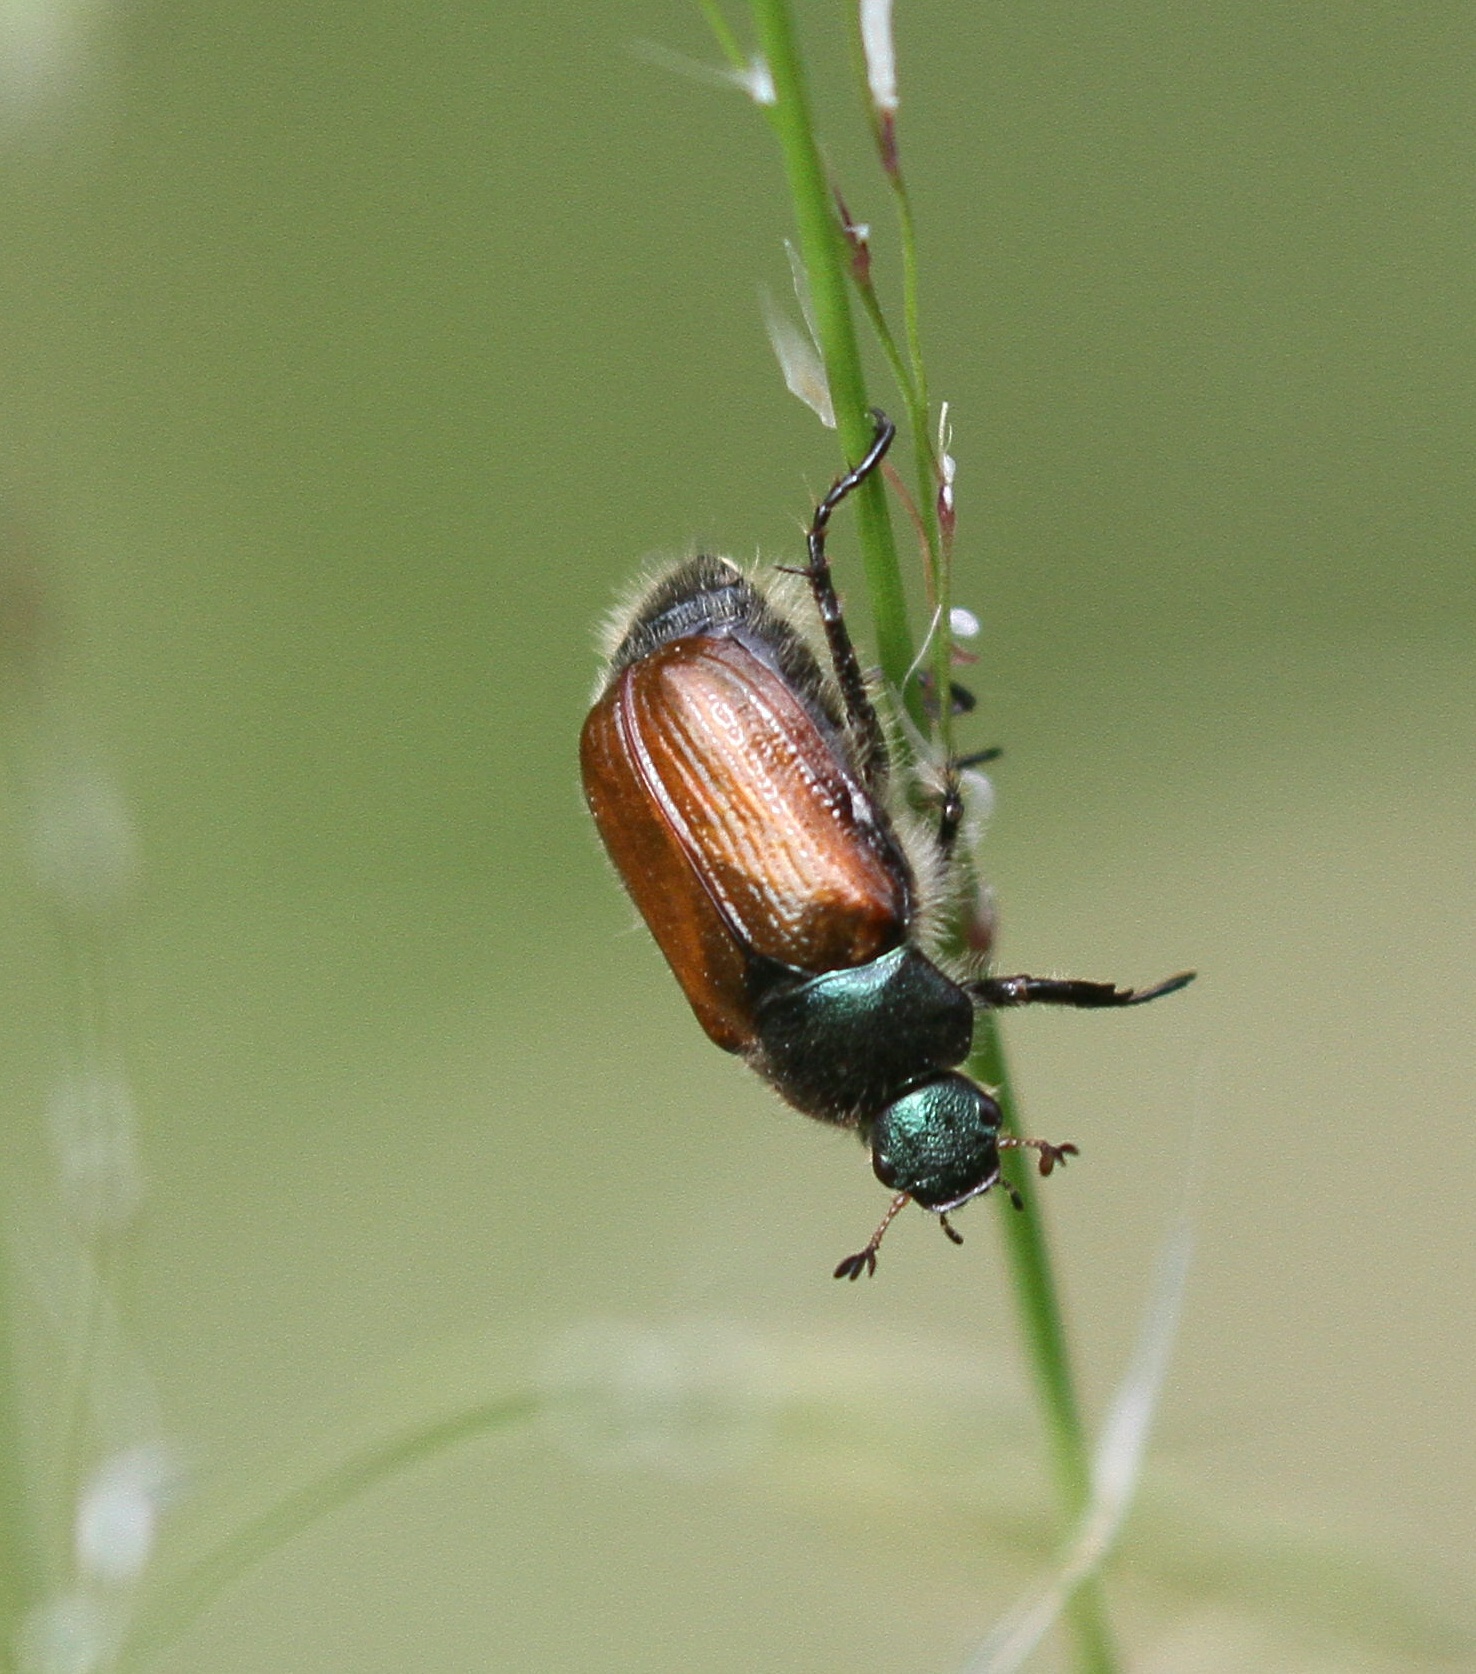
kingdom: Animalia
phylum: Arthropoda
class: Insecta
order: Coleoptera
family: Scarabaeidae
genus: Phyllopertha
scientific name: Phyllopertha horticola
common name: Garden chafer
